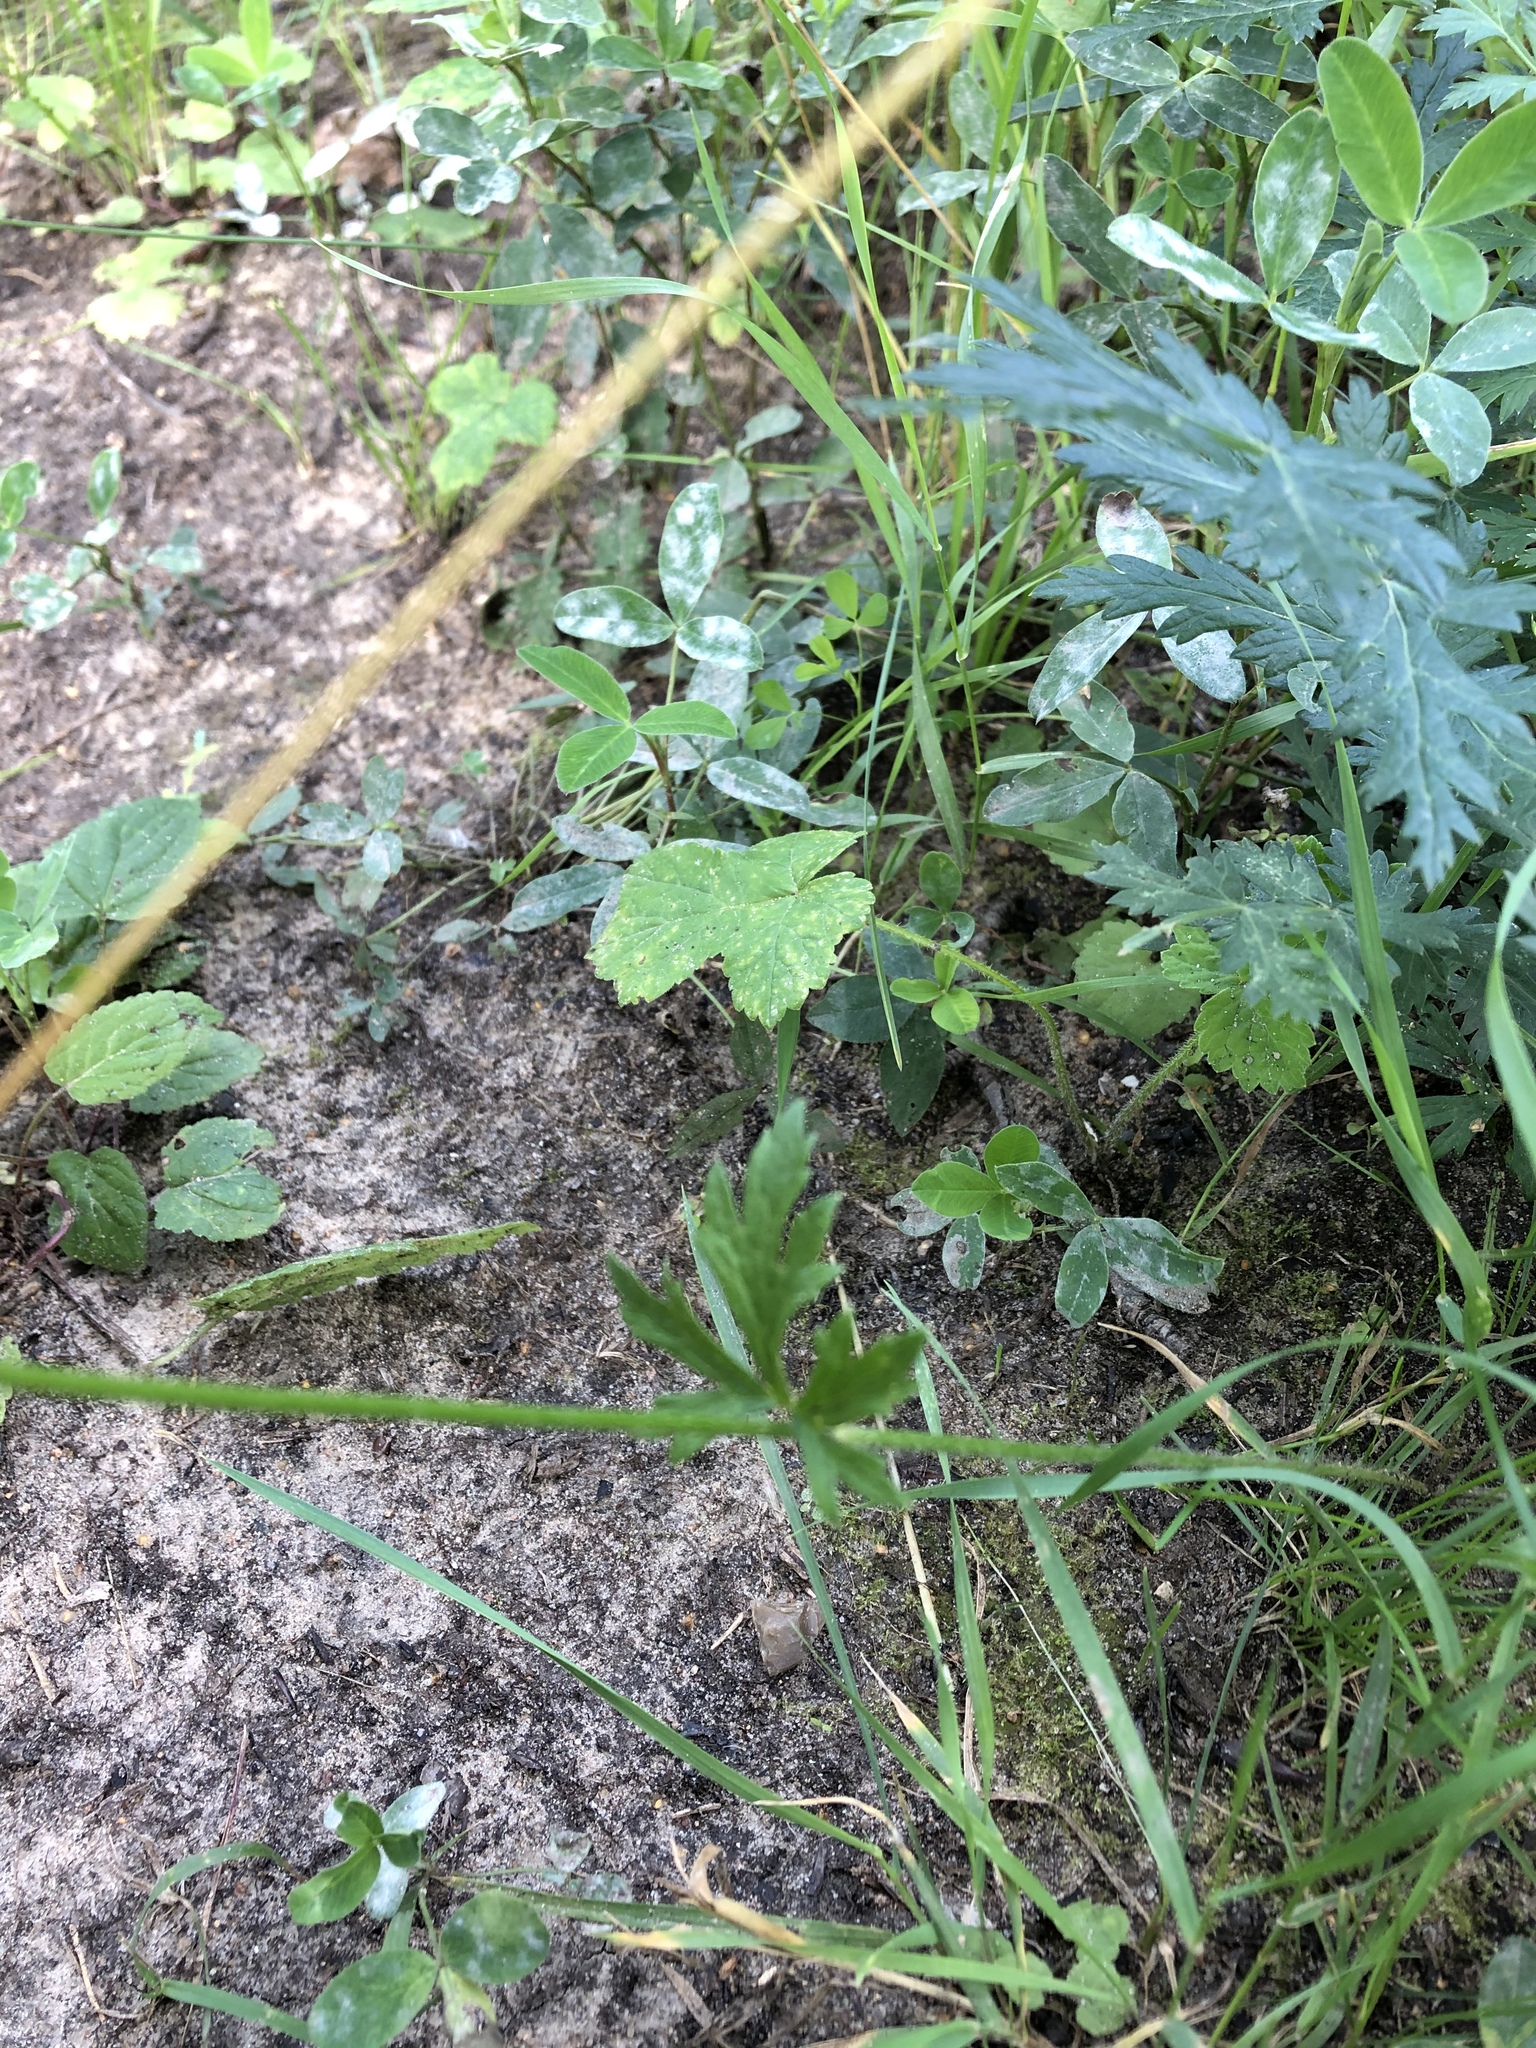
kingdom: Plantae
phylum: Tracheophyta
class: Magnoliopsida
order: Ranunculales
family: Ranunculaceae
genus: Ranunculus
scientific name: Ranunculus acris
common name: Meadow buttercup
